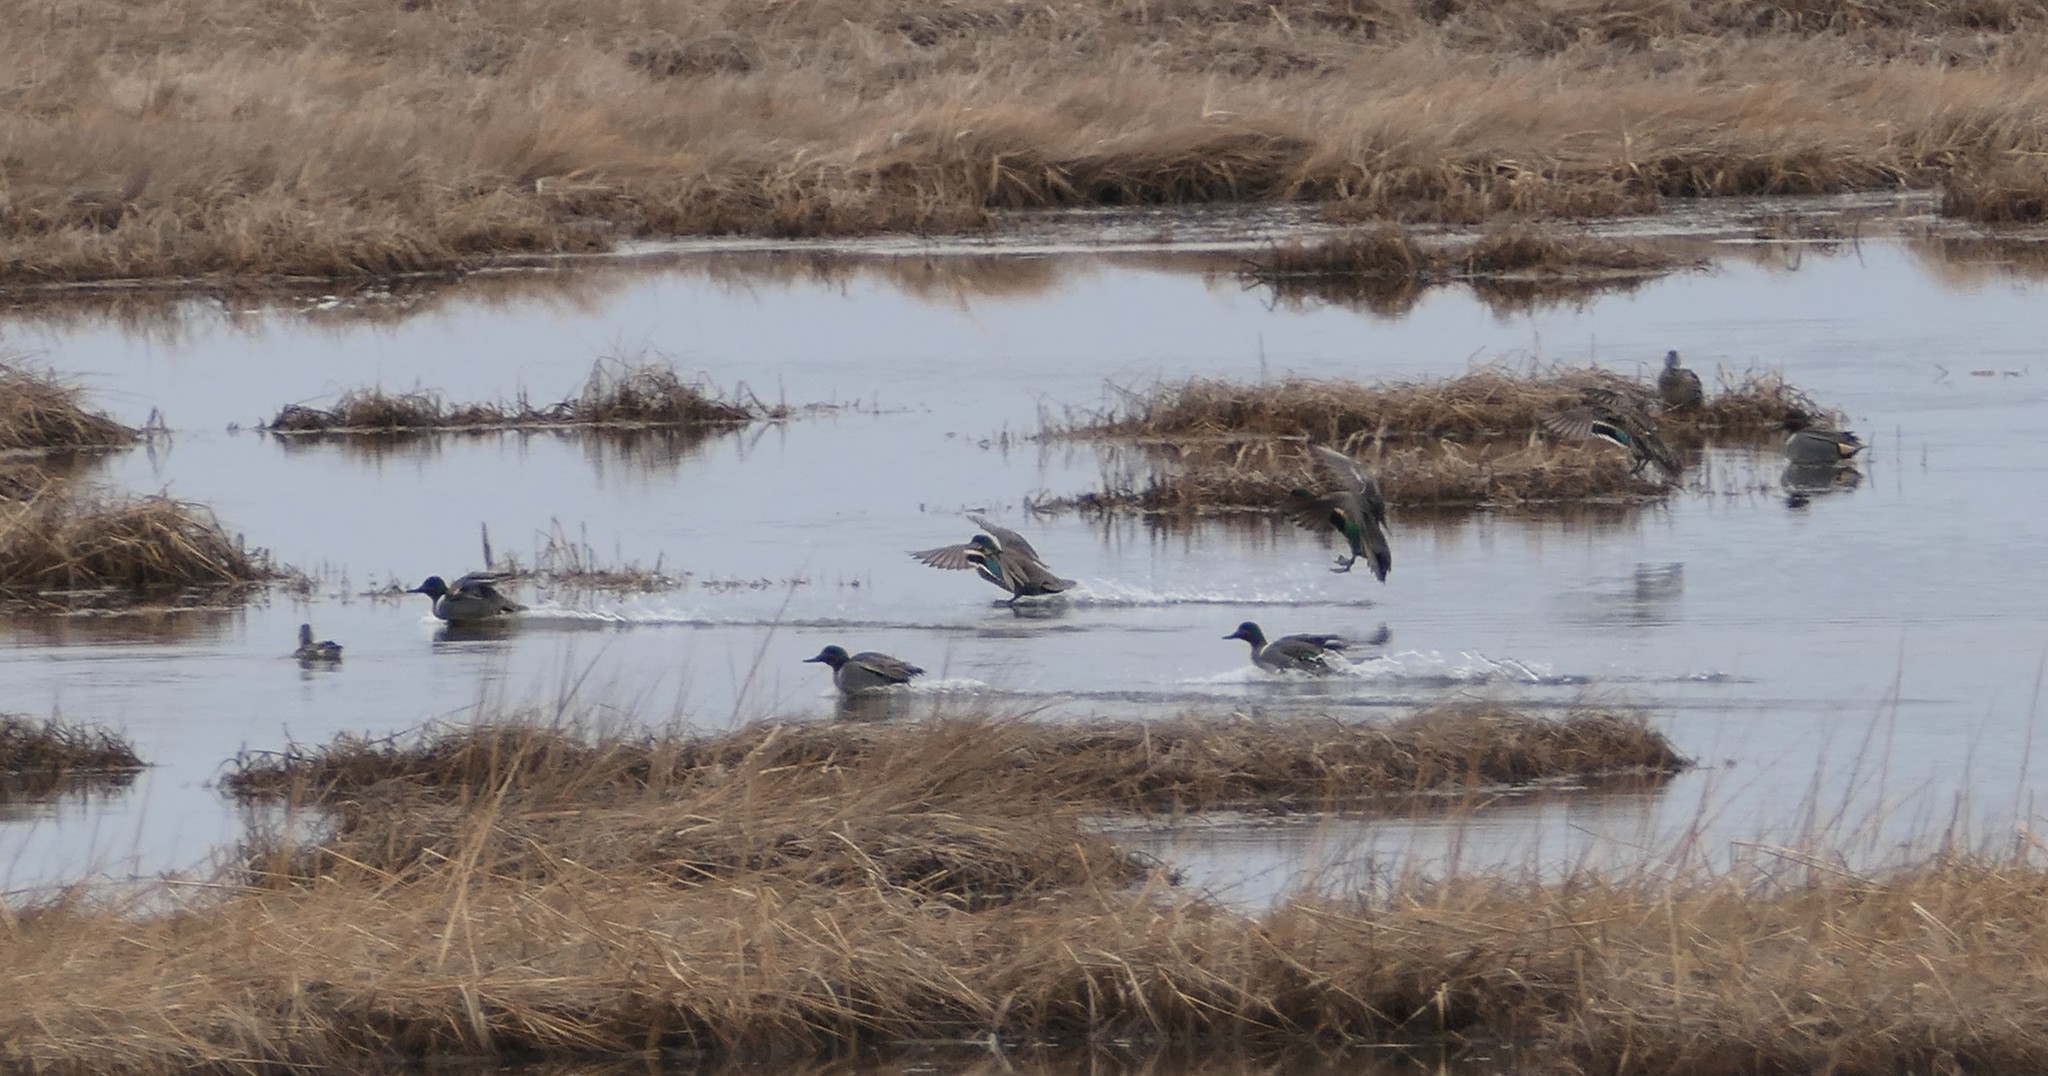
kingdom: Animalia
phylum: Chordata
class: Aves
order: Anseriformes
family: Anatidae
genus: Anas
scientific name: Anas crecca
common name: Eurasian teal
